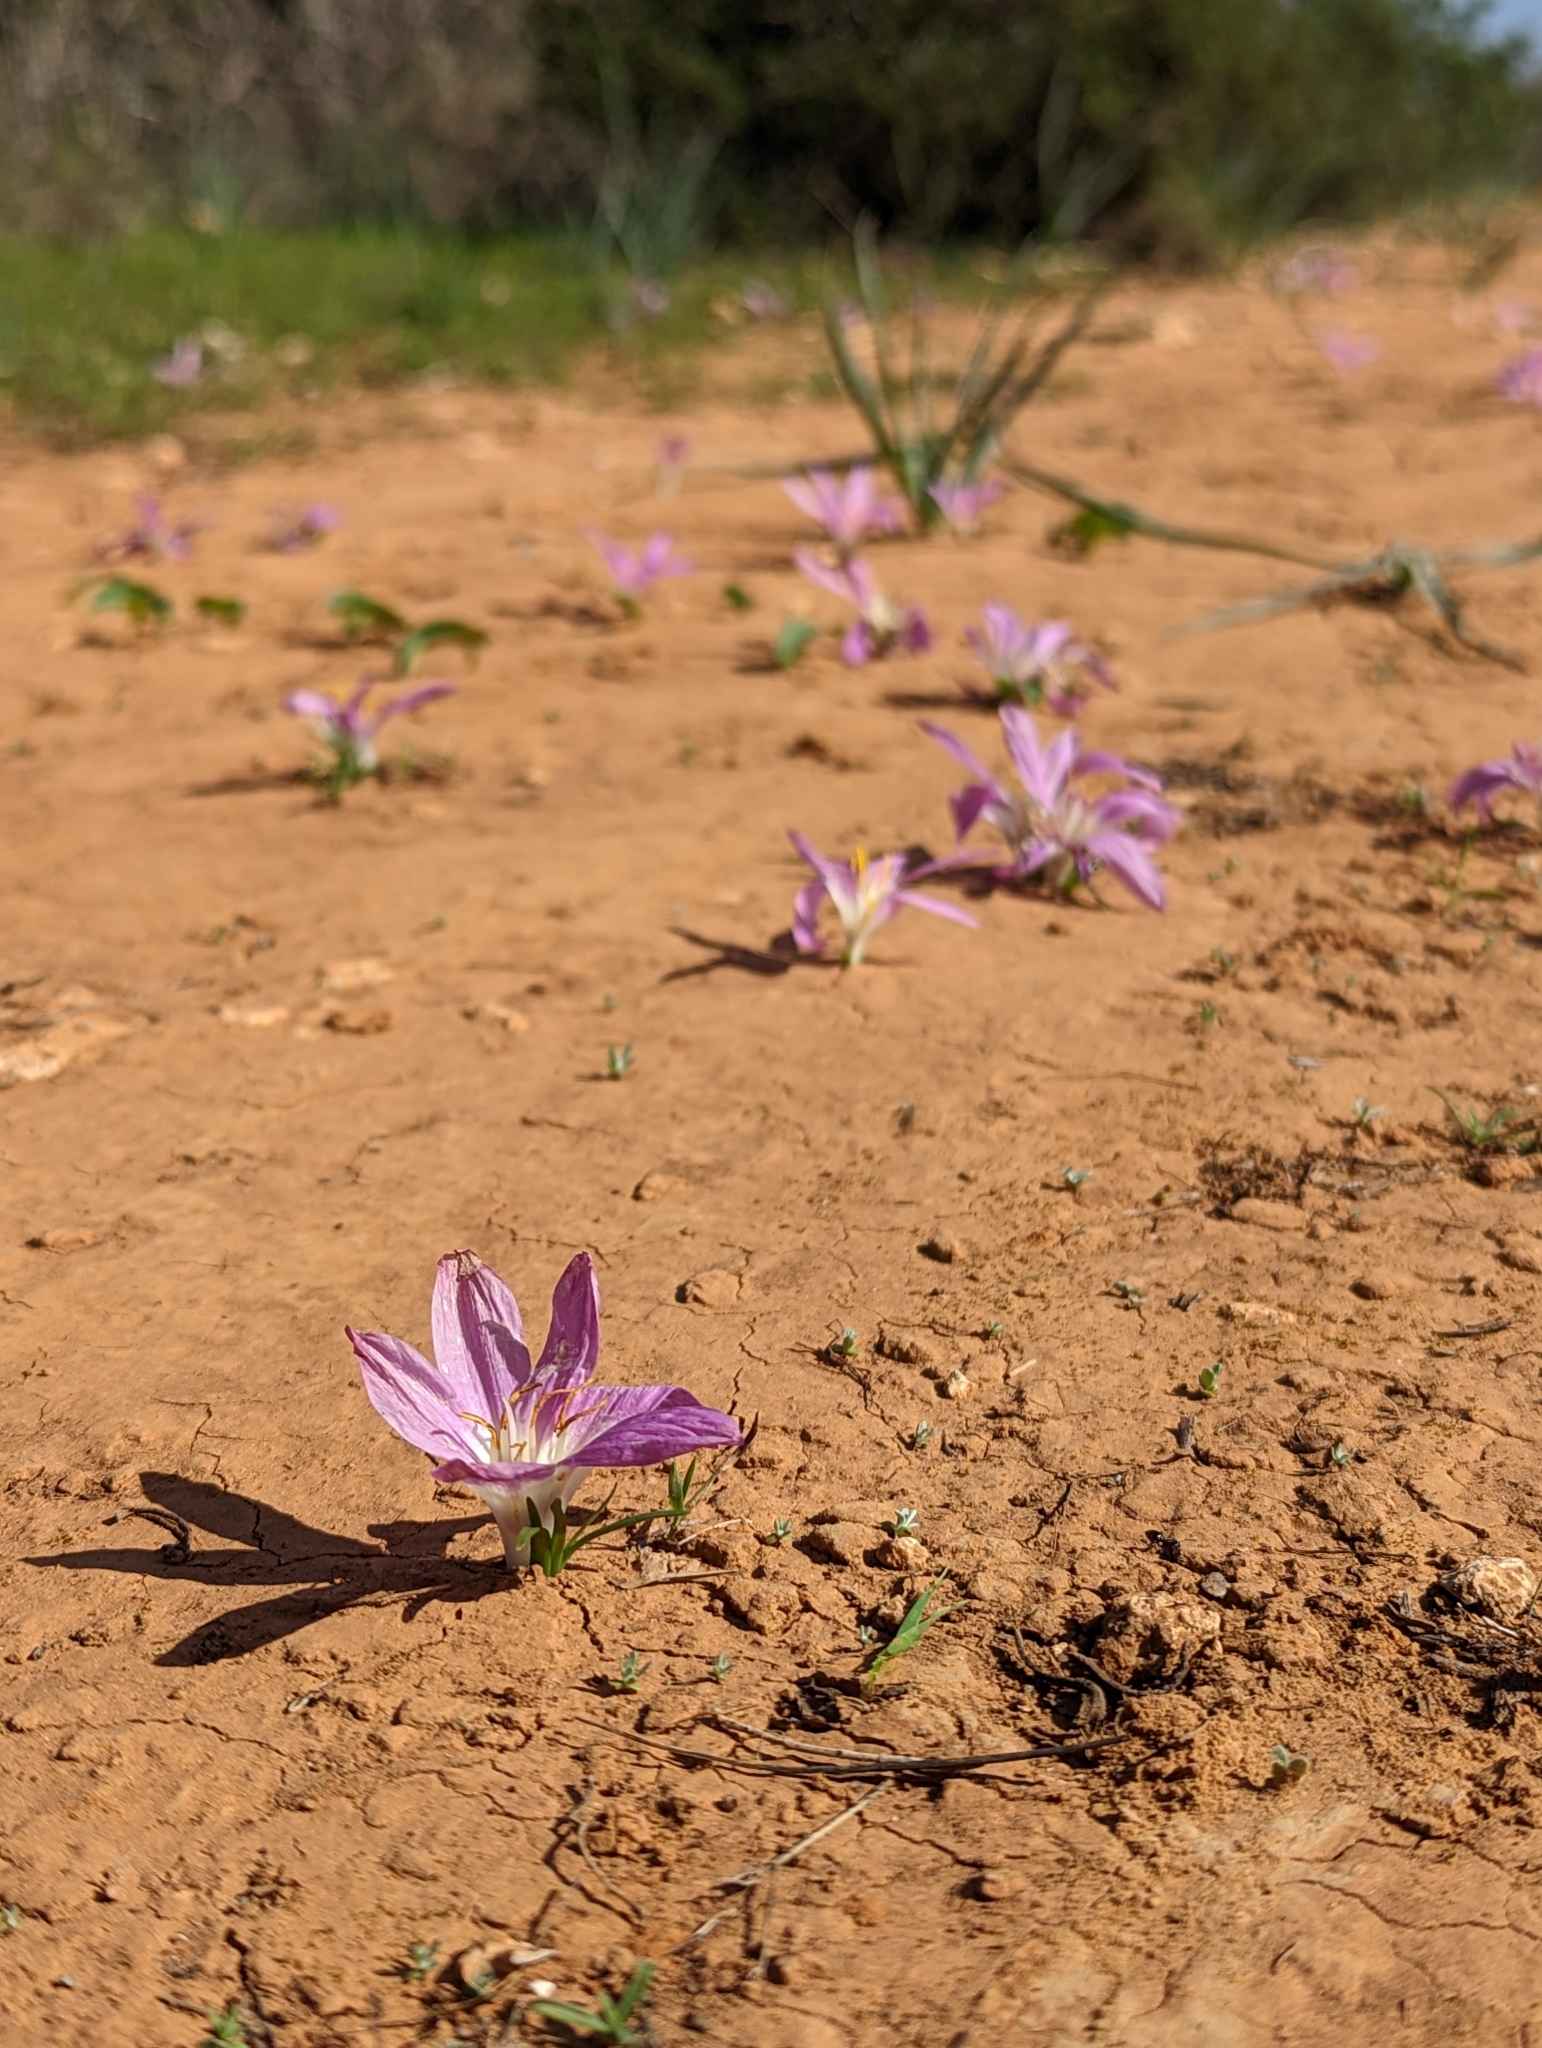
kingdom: Plantae
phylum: Tracheophyta
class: Liliopsida
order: Liliales
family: Colchicaceae
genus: Colchicum
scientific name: Colchicum filifolium
